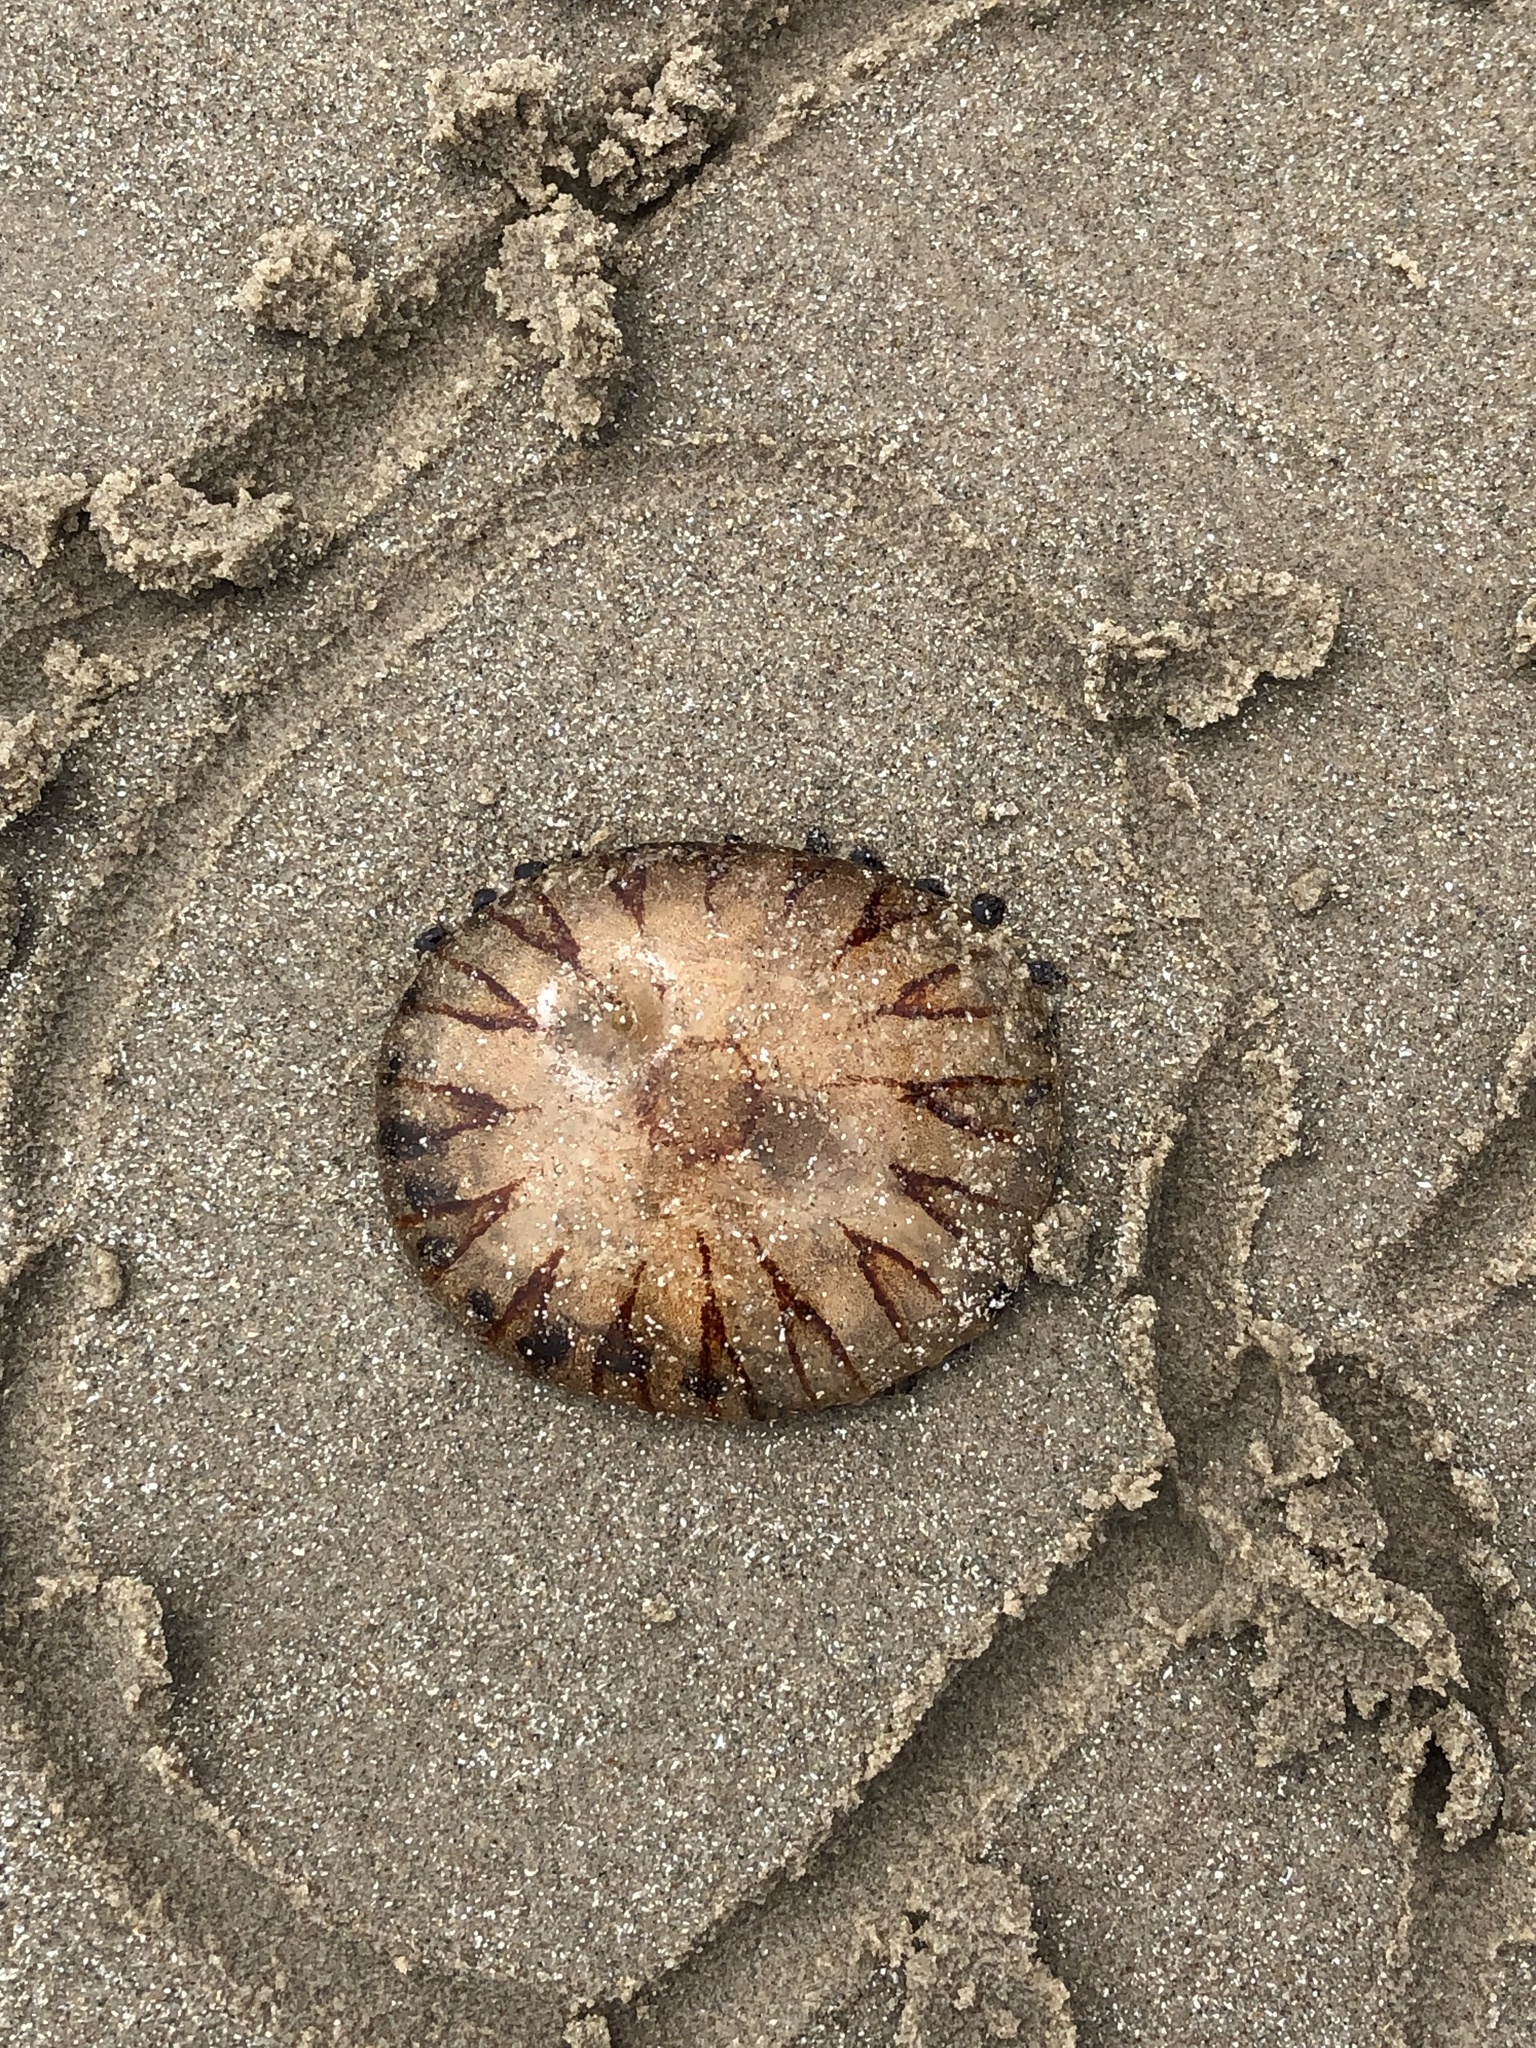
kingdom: Animalia
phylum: Cnidaria
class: Scyphozoa
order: Semaeostomeae
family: Pelagiidae
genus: Chrysaora
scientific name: Chrysaora hysoscella
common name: Compass jellyfish
